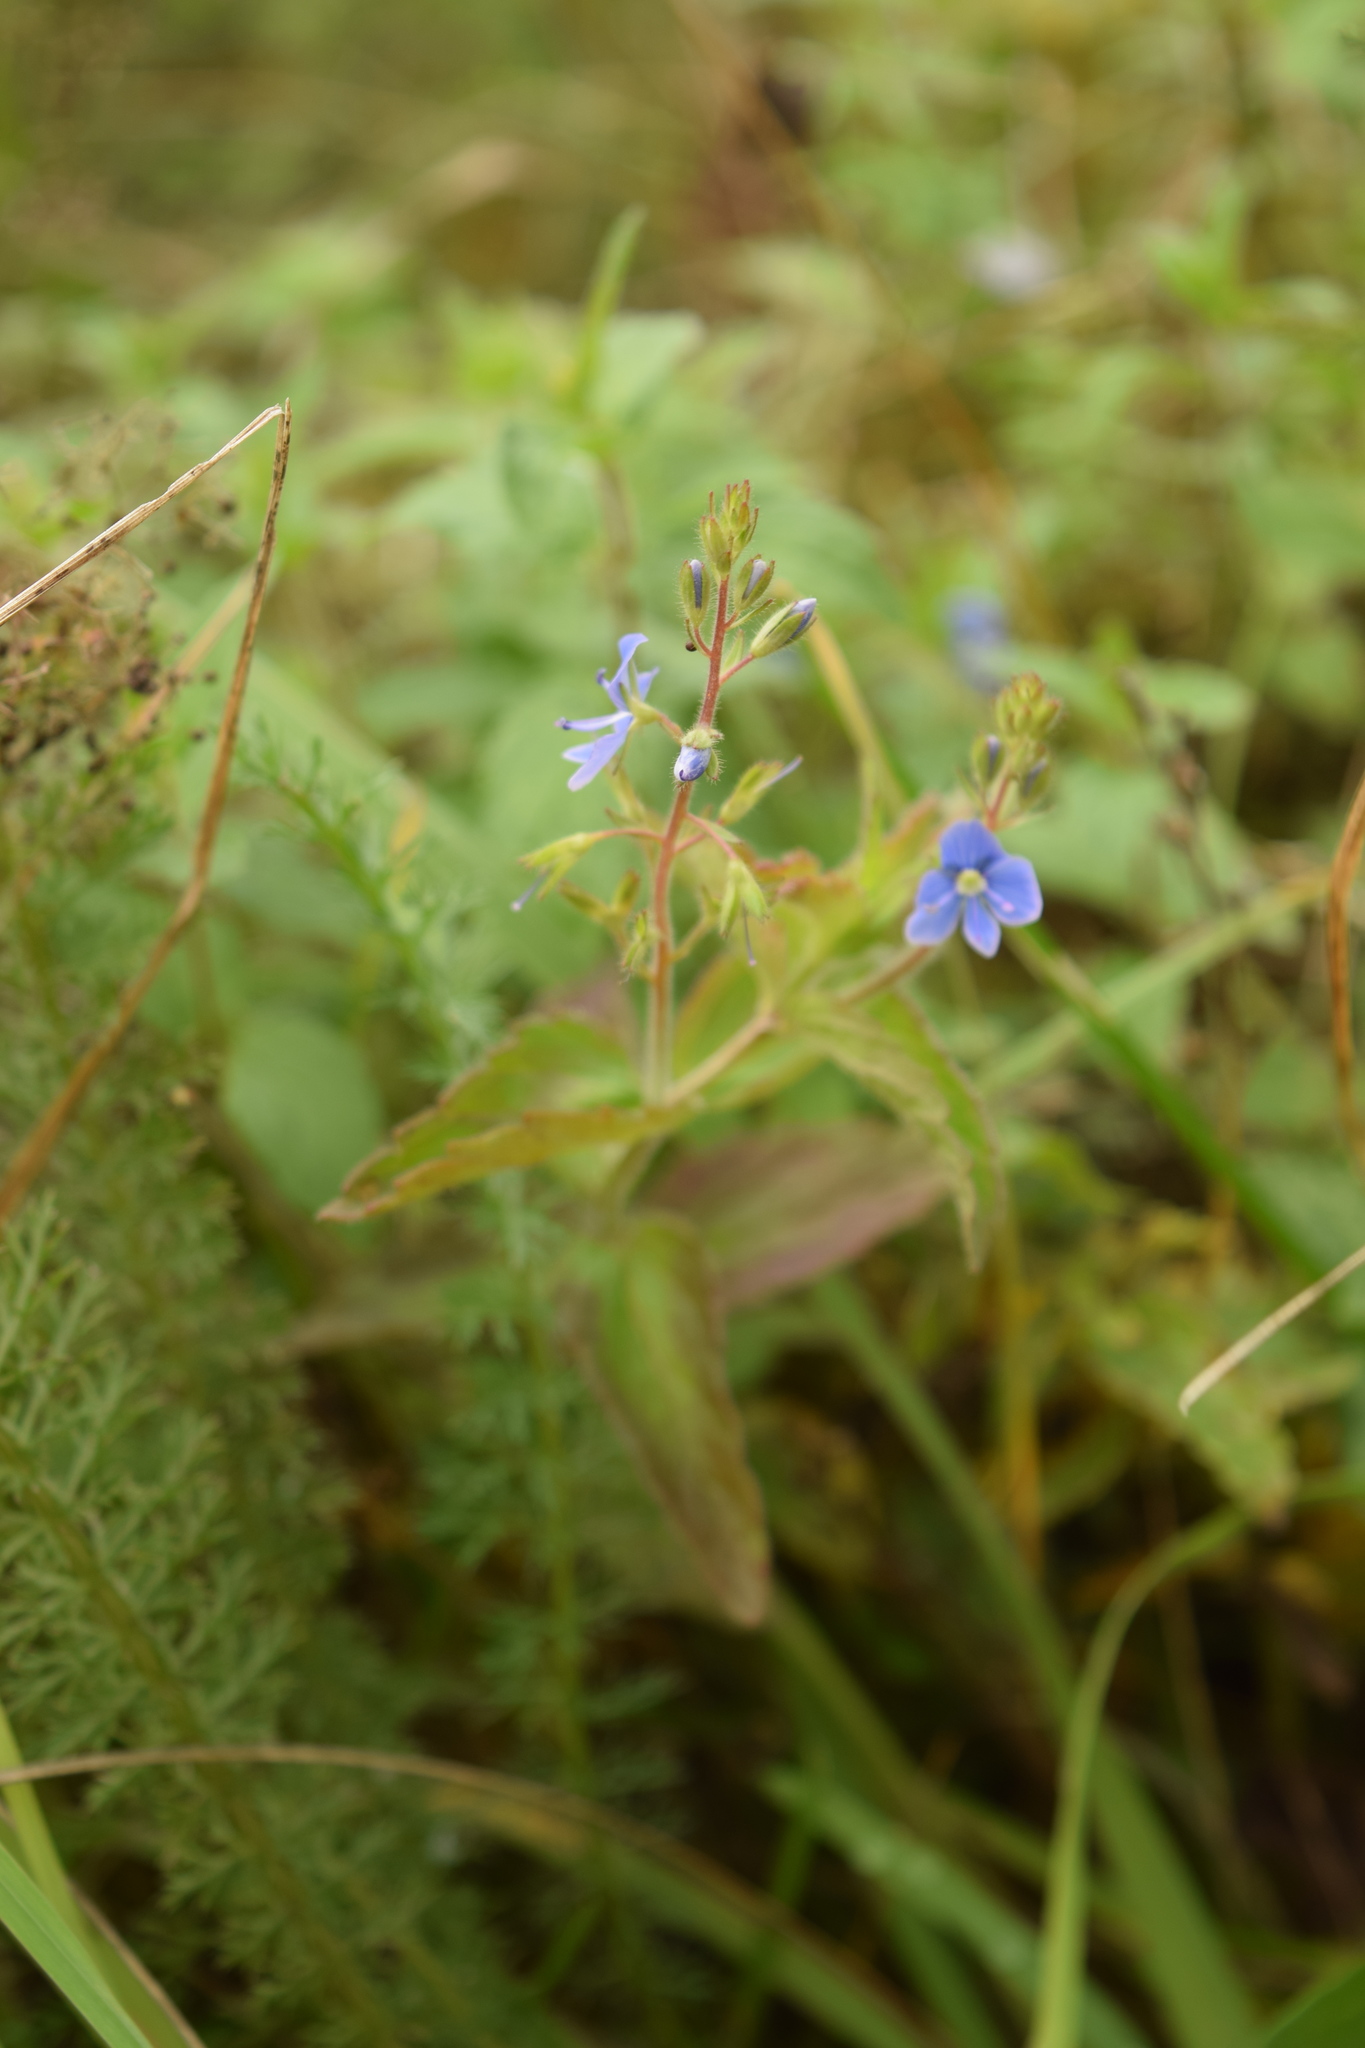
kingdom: Plantae
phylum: Tracheophyta
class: Magnoliopsida
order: Lamiales
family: Plantaginaceae
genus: Veronica
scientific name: Veronica chamaedrys
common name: Germander speedwell
